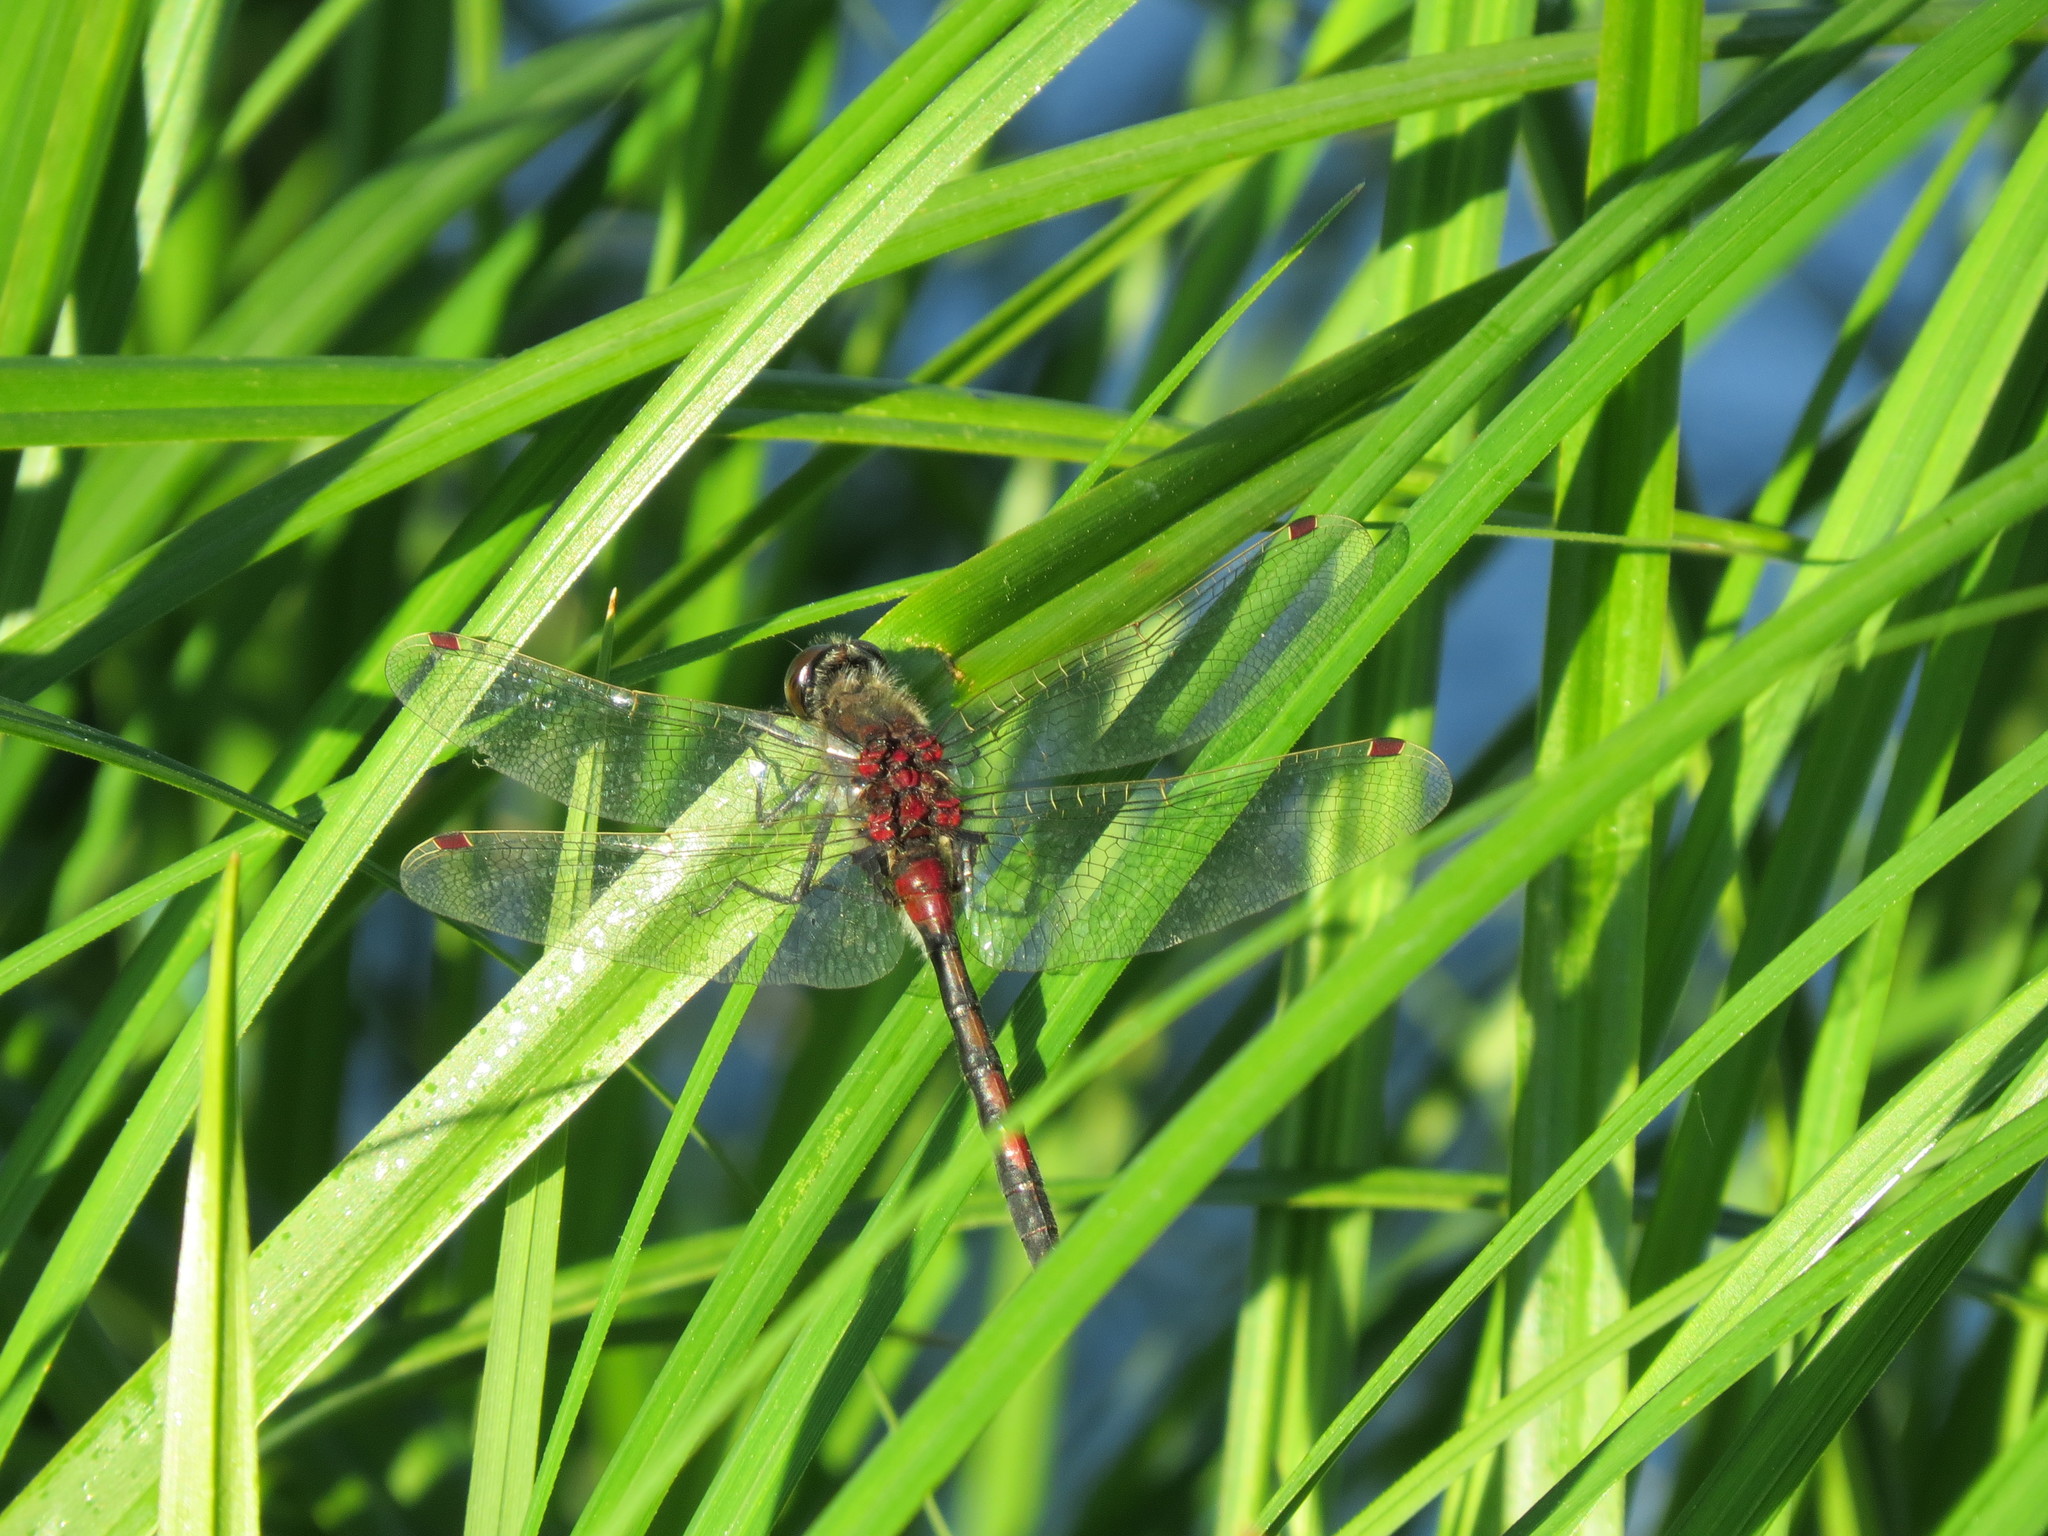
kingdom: Animalia
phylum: Arthropoda
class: Insecta
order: Odonata
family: Libellulidae
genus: Leucorrhinia
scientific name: Leucorrhinia rubicunda
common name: Ruby whiteface
